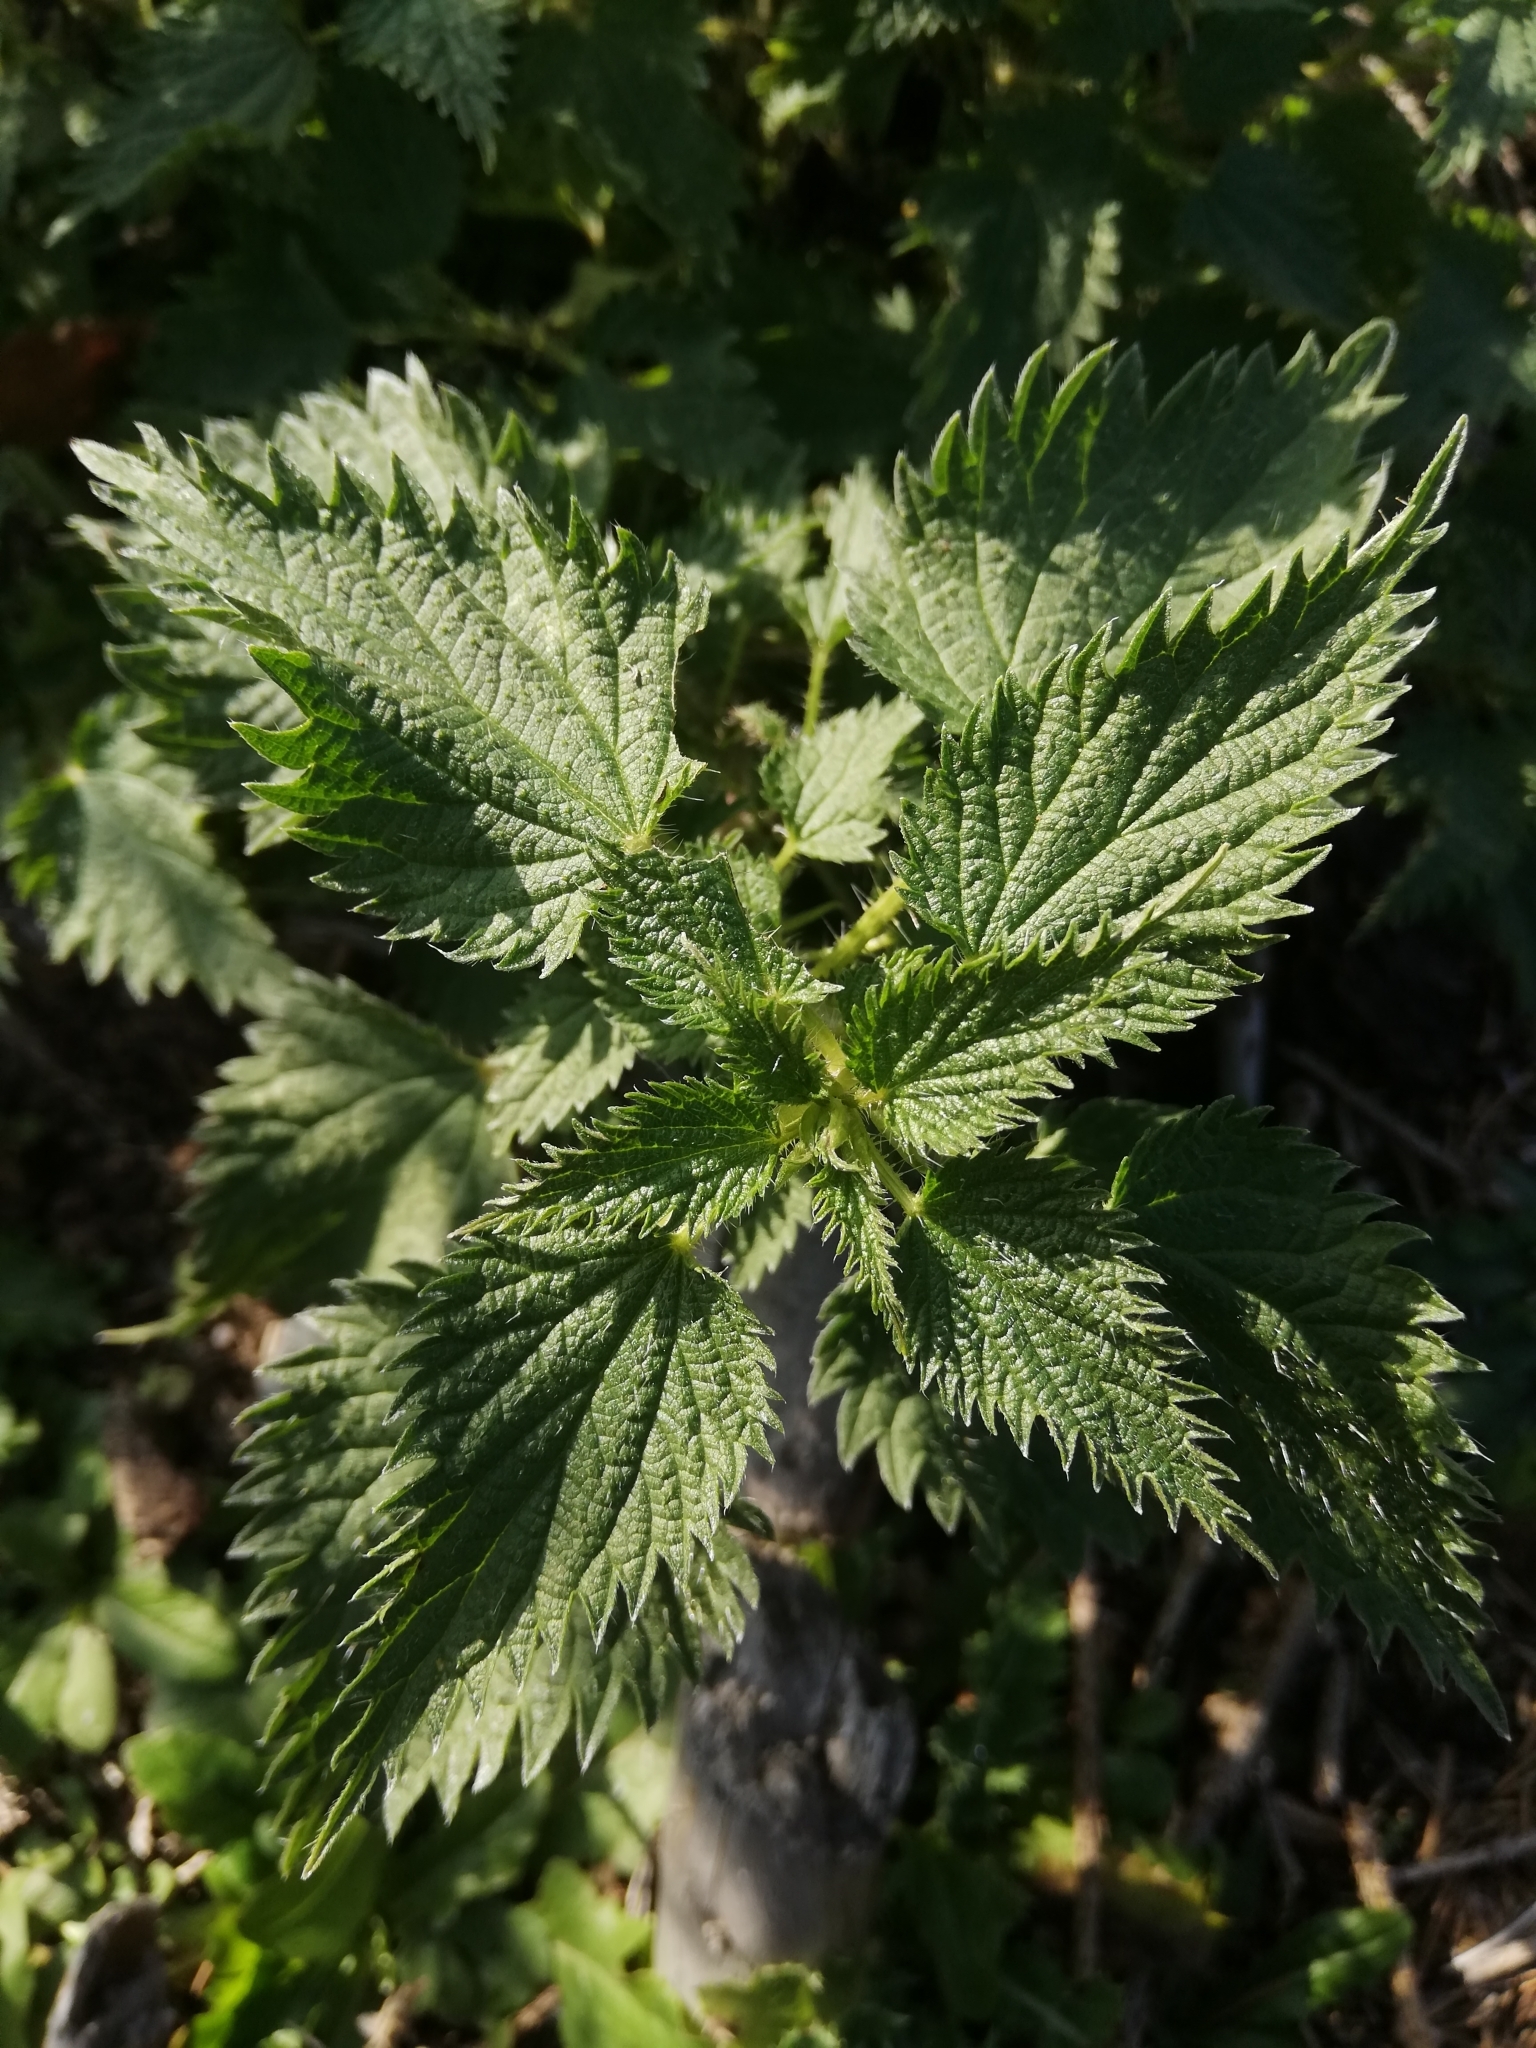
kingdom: Plantae
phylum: Tracheophyta
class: Magnoliopsida
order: Rosales
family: Urticaceae
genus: Urtica
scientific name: Urtica dioica
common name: Common nettle
